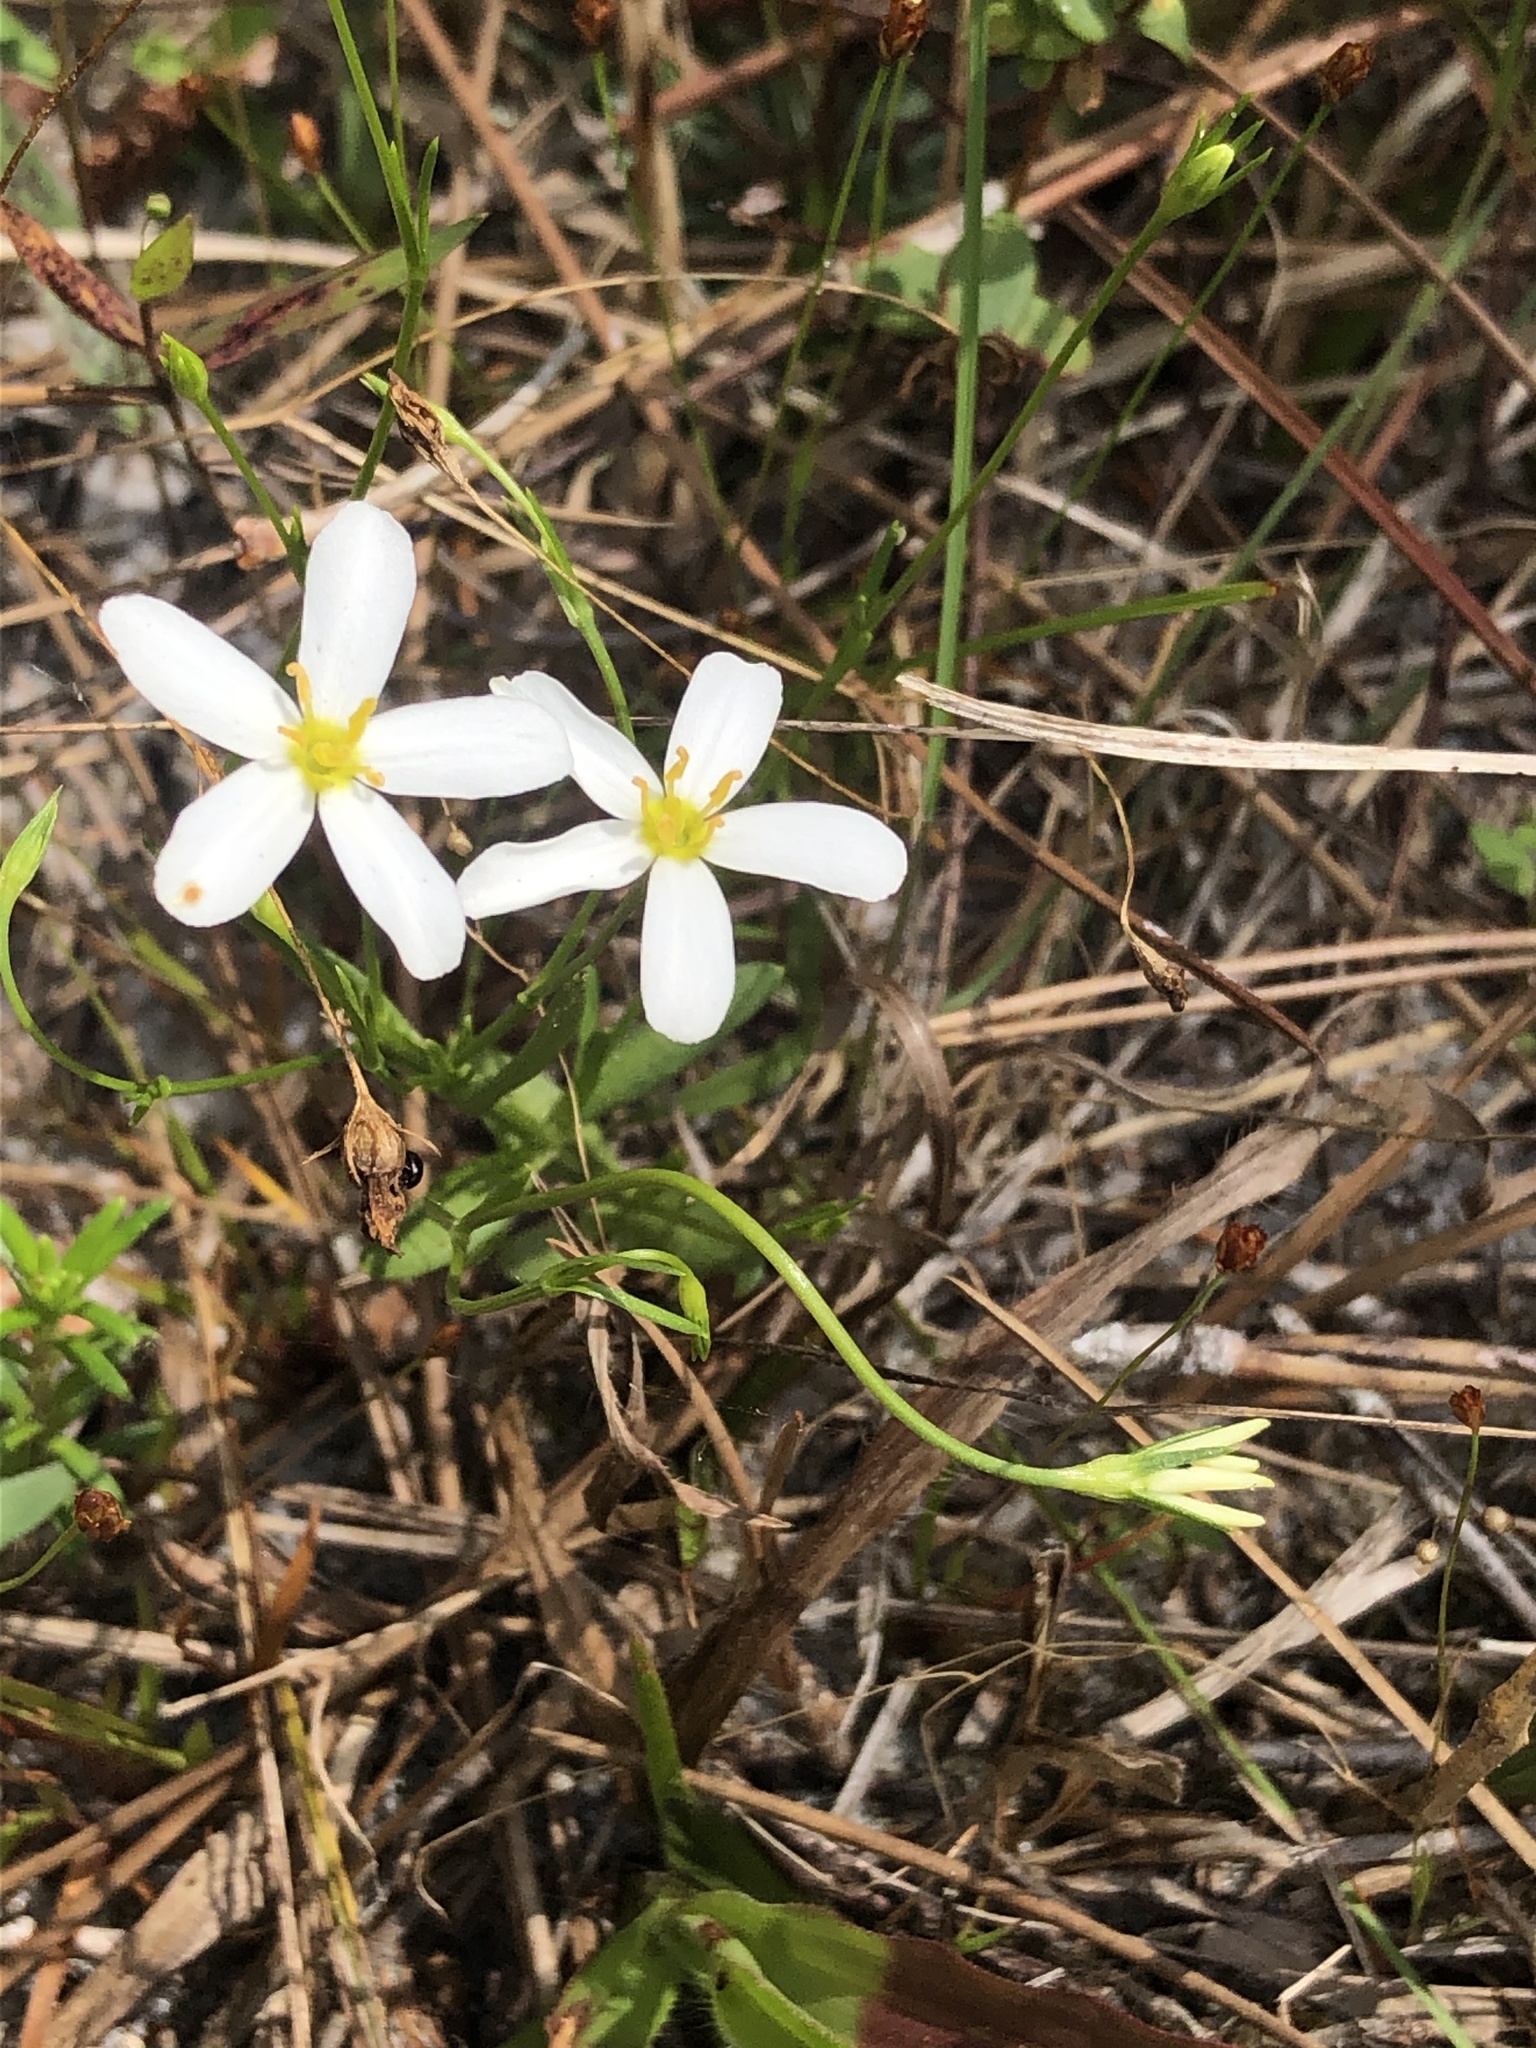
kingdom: Plantae
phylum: Tracheophyta
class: Magnoliopsida
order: Gentianales
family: Gentianaceae
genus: Sabatia
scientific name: Sabatia brevifolia
